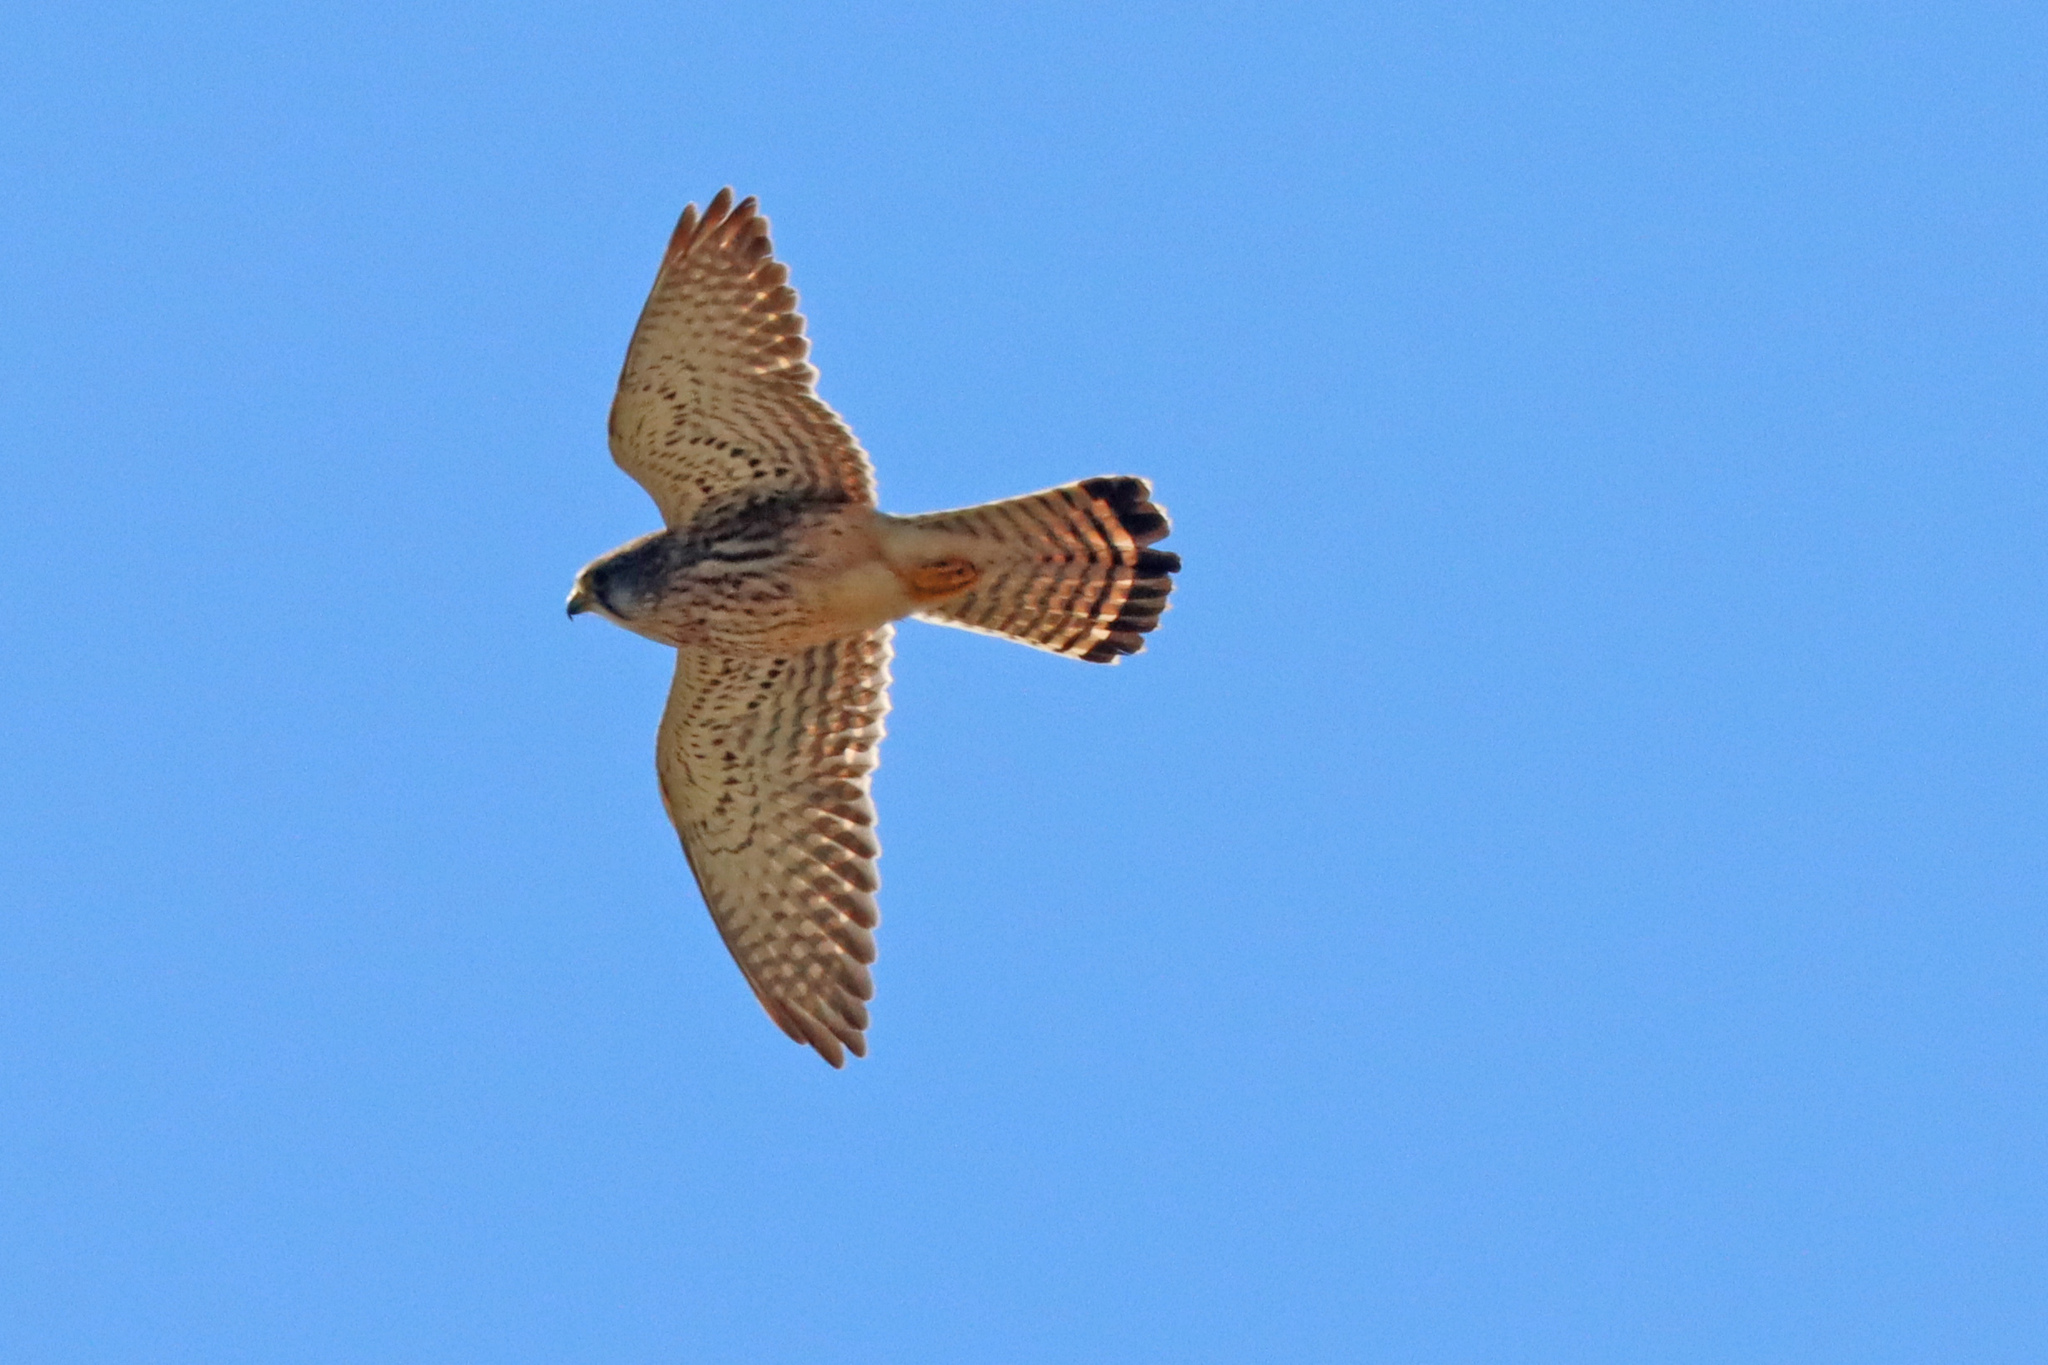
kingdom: Animalia
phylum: Chordata
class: Aves
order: Falconiformes
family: Falconidae
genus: Falco
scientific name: Falco tinnunculus
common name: Common kestrel
